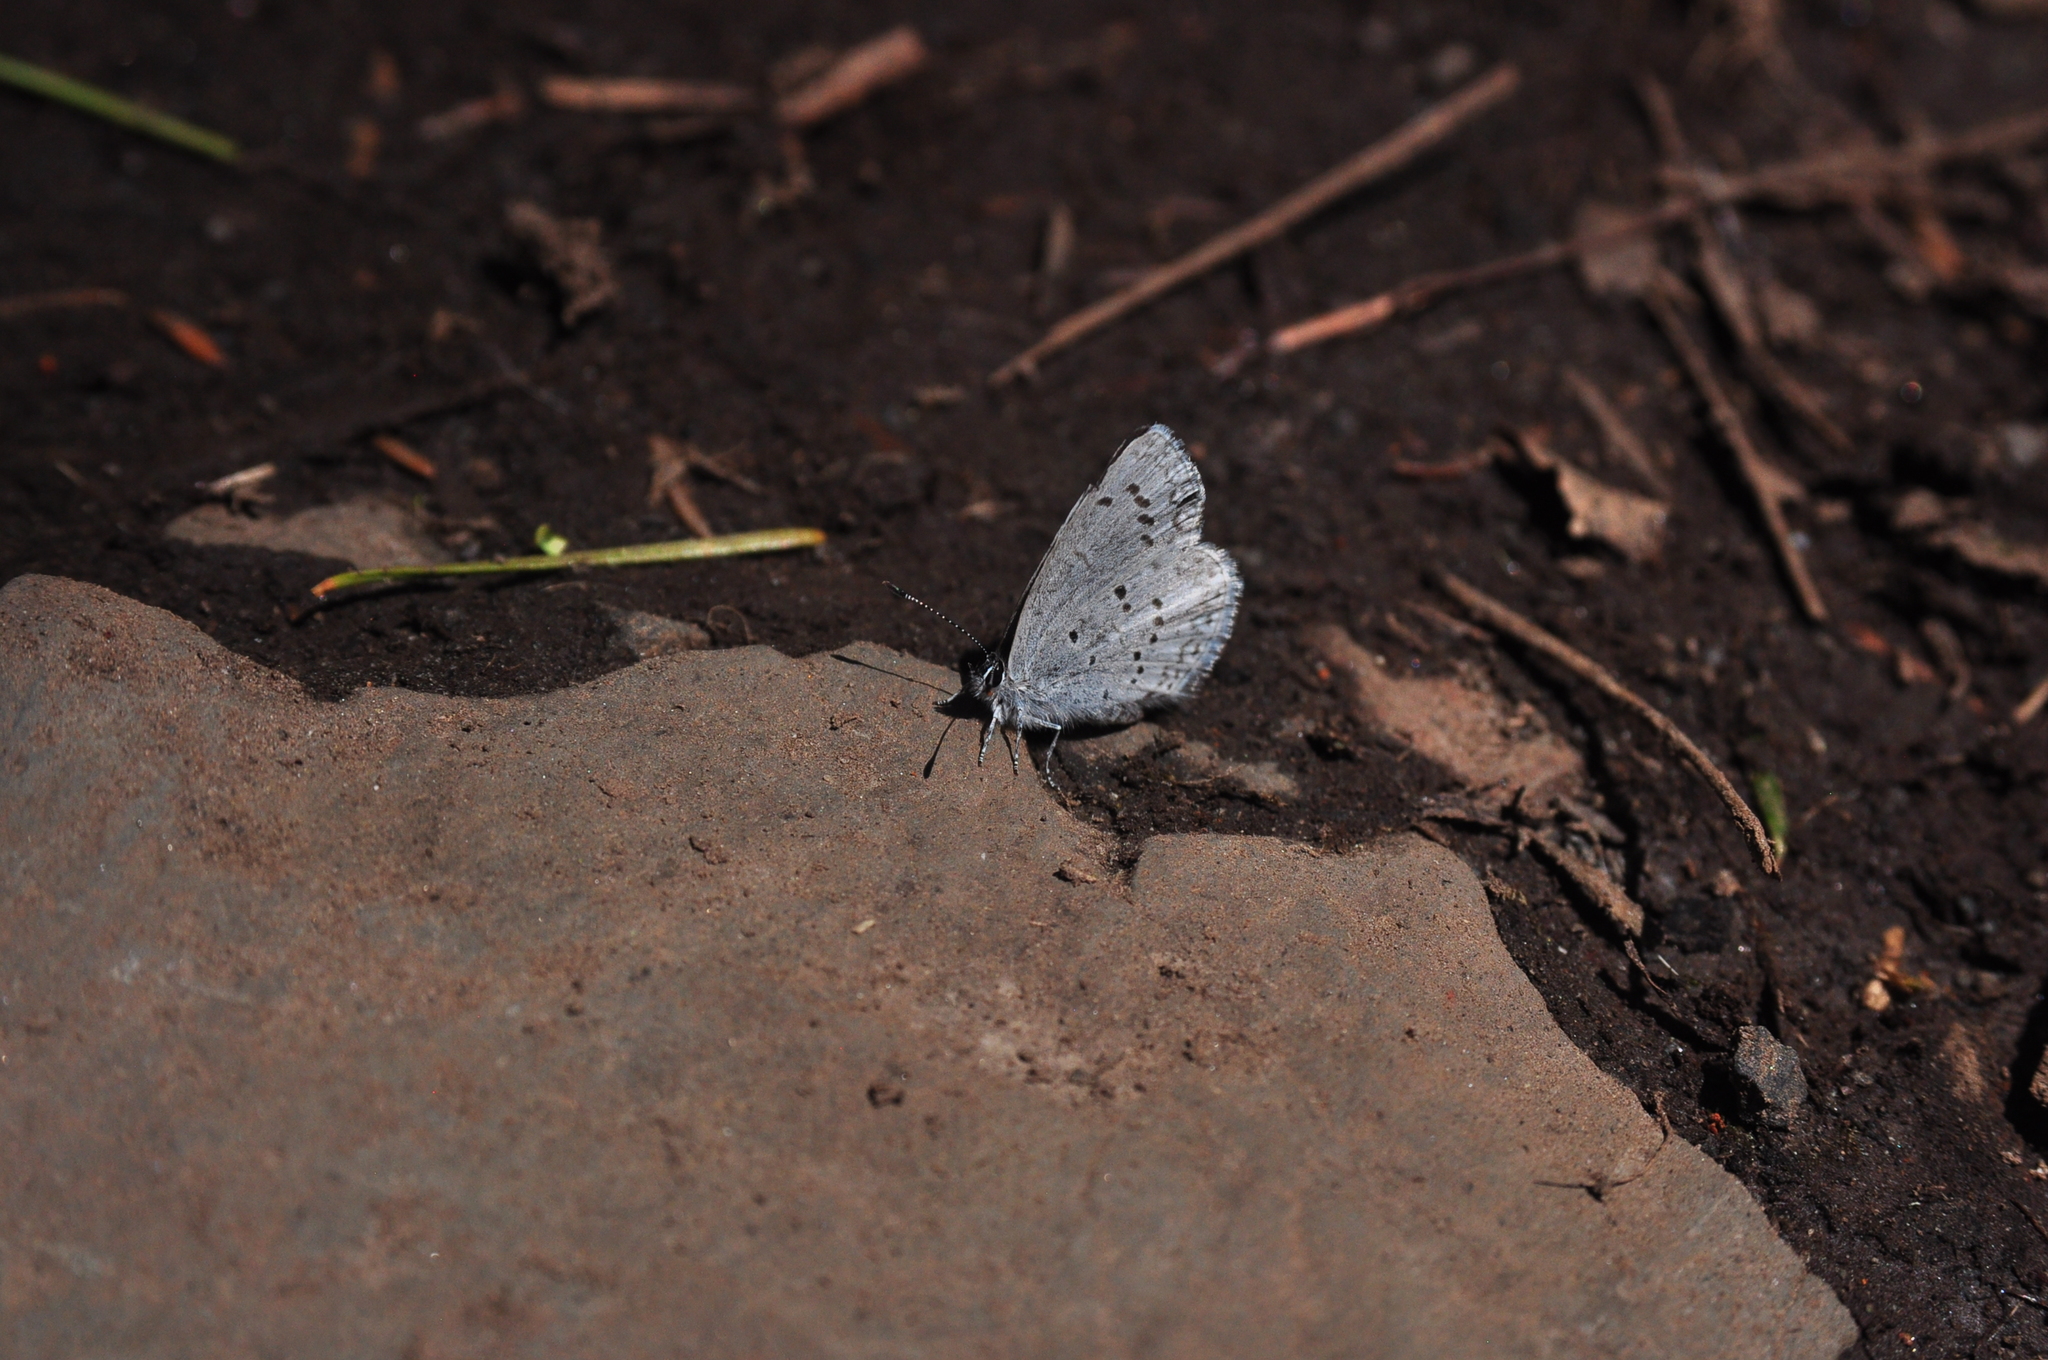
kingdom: Animalia
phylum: Arthropoda
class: Insecta
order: Lepidoptera
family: Lycaenidae
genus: Celastrina
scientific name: Celastrina ladon
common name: Spring azure
